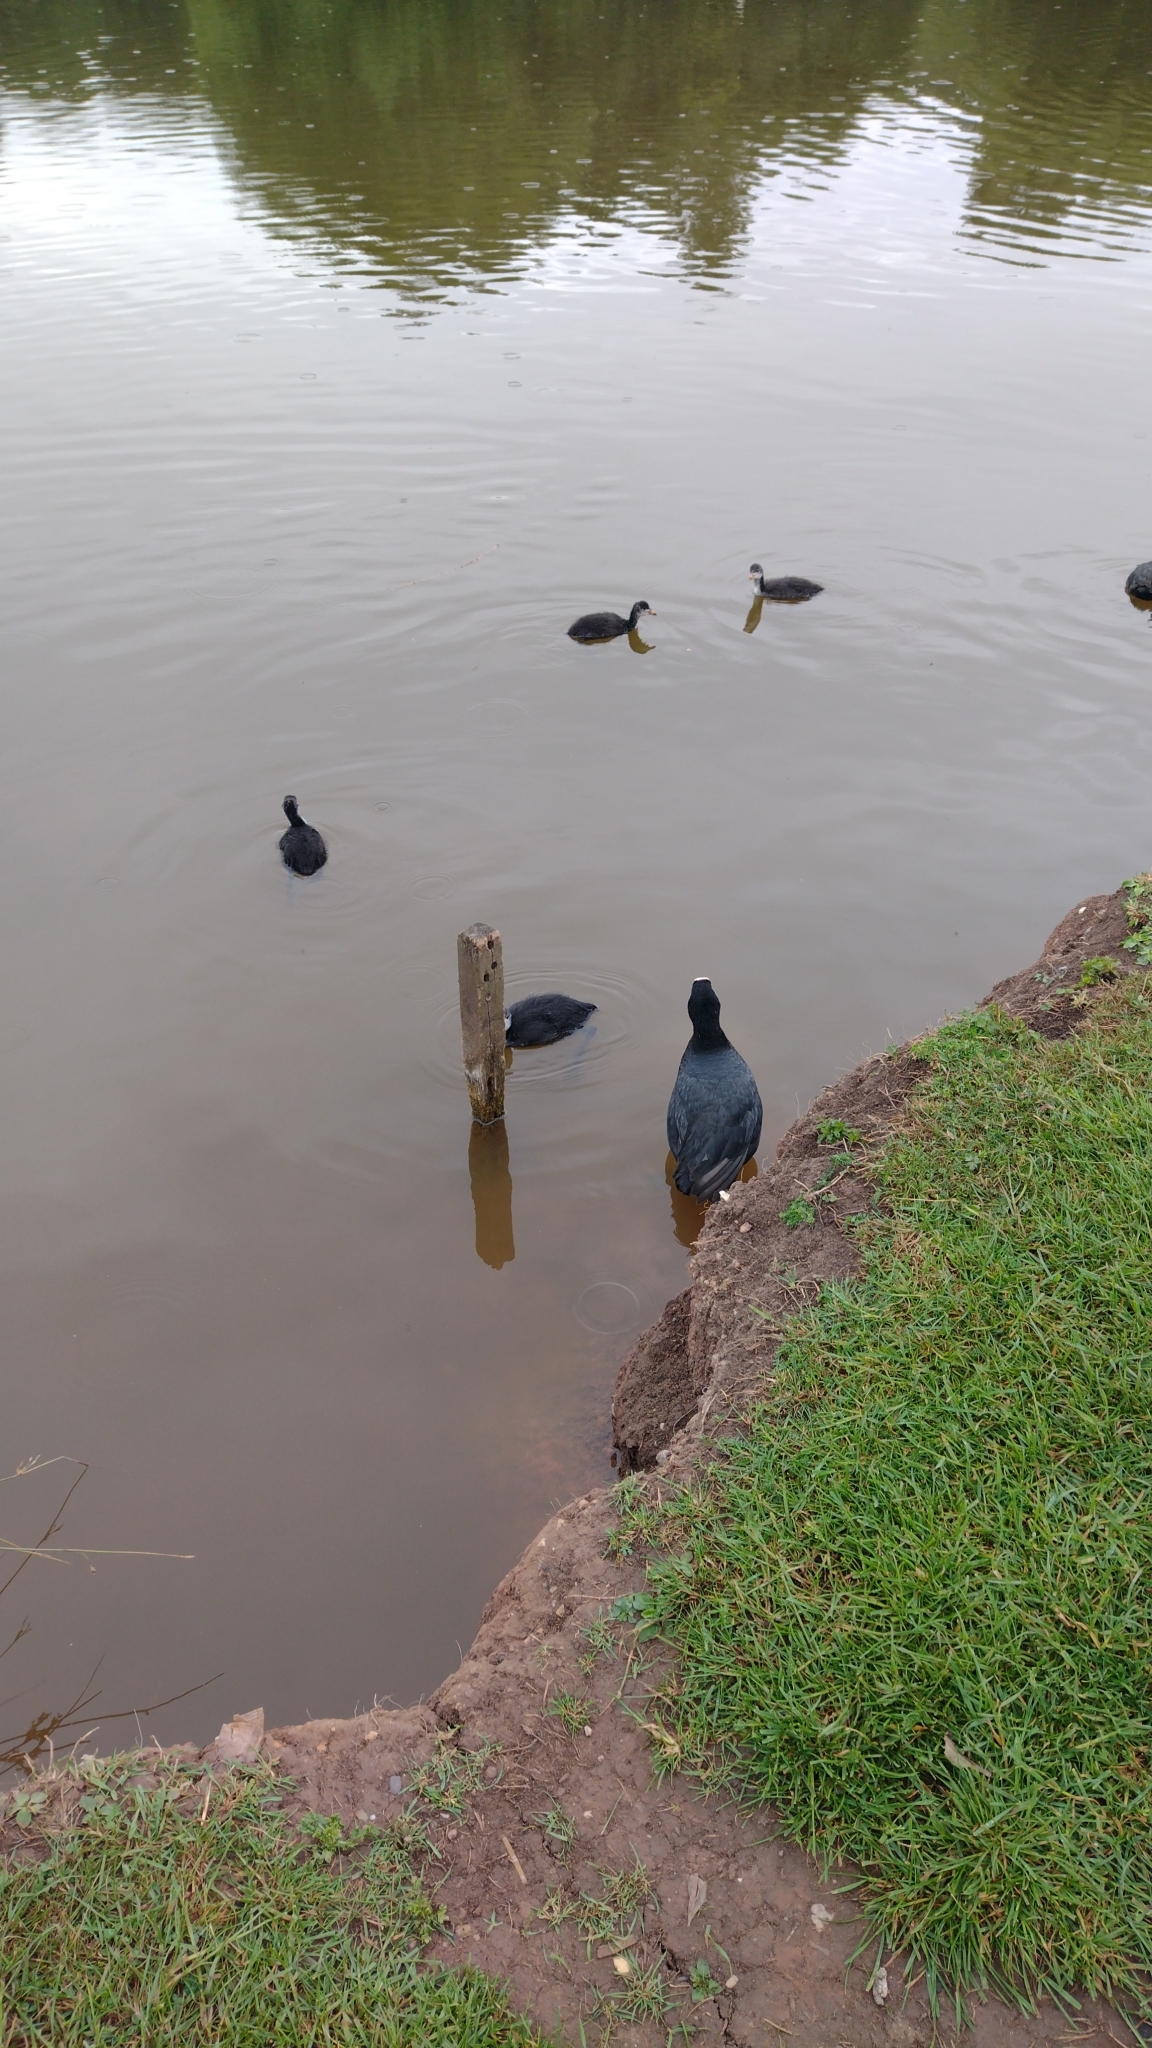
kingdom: Animalia
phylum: Chordata
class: Aves
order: Gruiformes
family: Rallidae
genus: Fulica
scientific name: Fulica atra
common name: Eurasian coot
